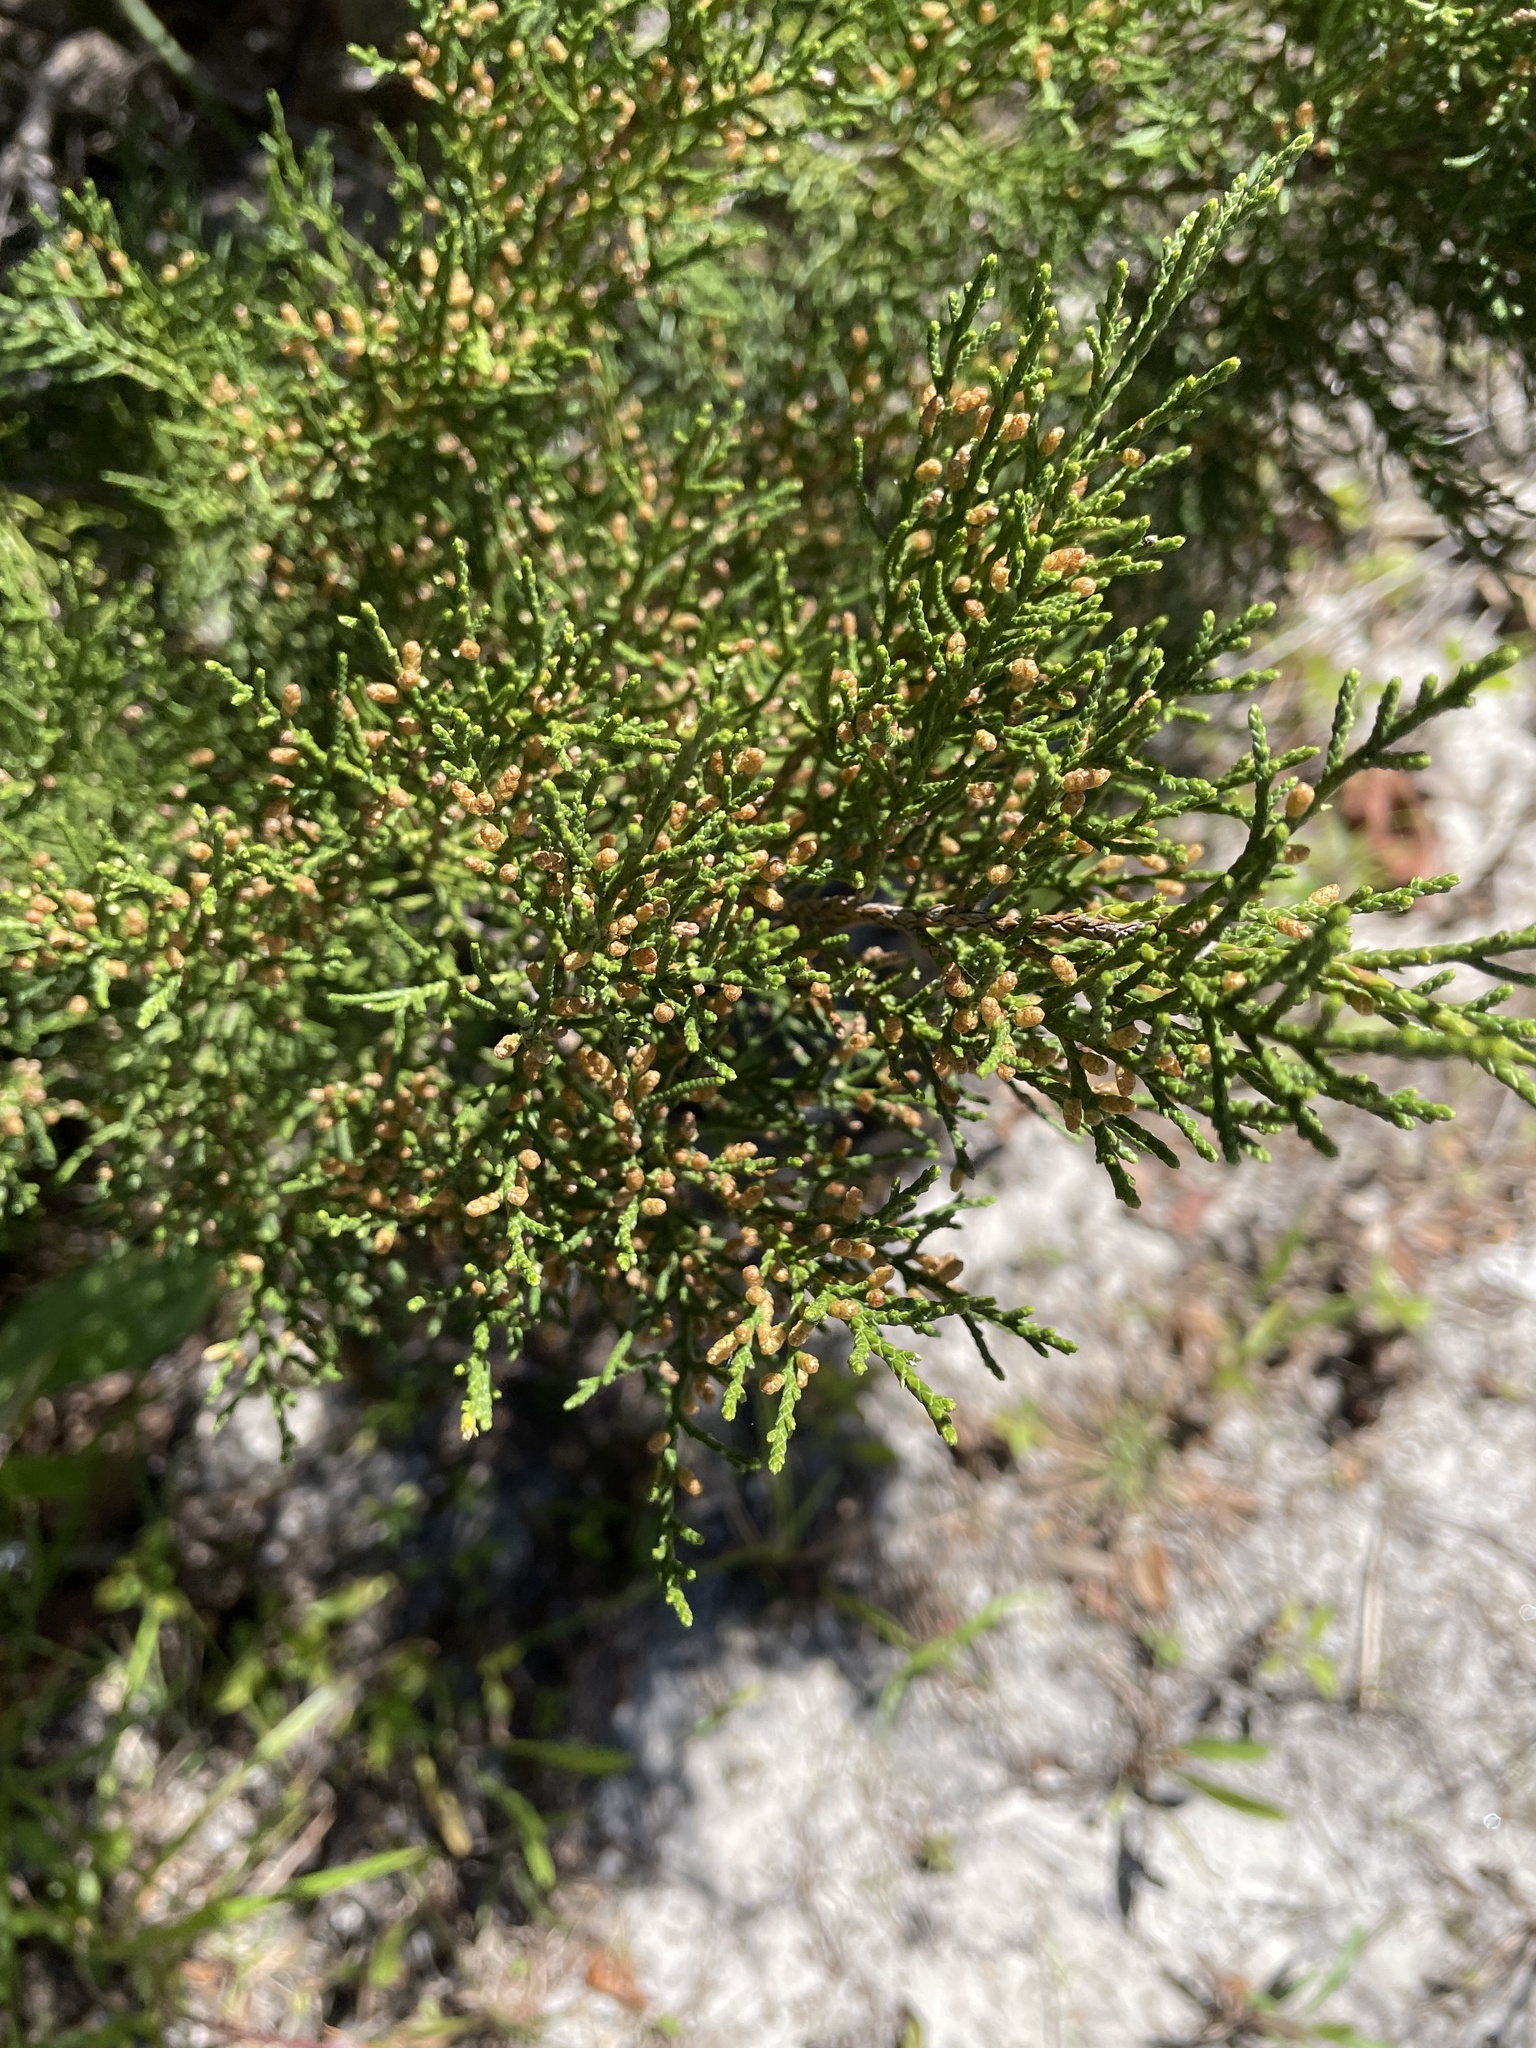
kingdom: Plantae
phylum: Tracheophyta
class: Pinopsida
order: Pinales
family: Cupressaceae
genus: Juniperus
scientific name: Juniperus virginiana
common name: Red juniper
